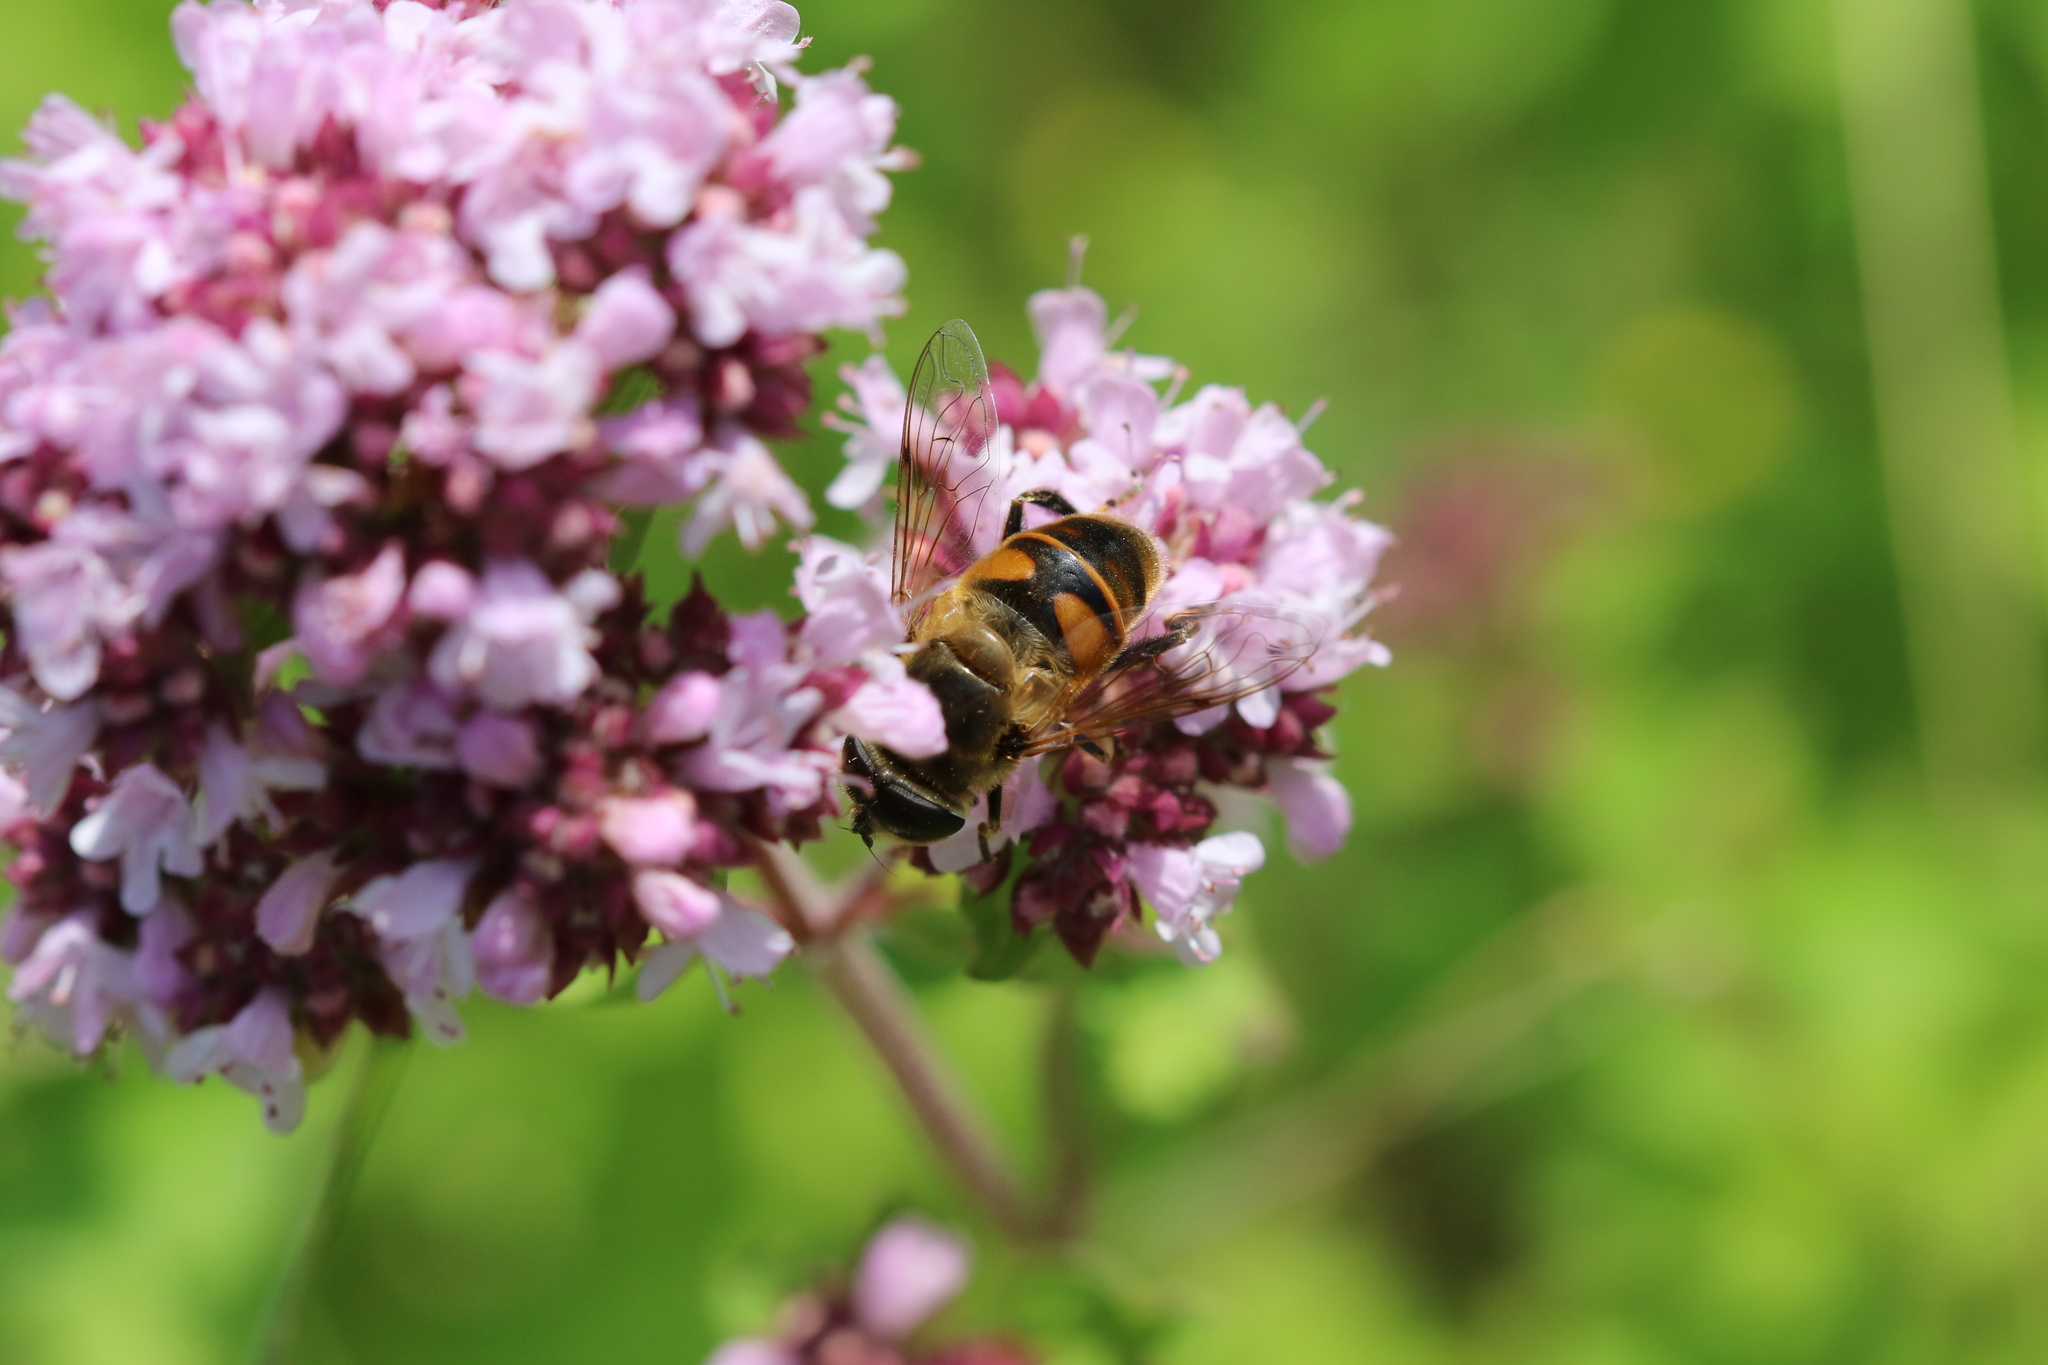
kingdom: Animalia
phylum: Arthropoda
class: Insecta
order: Diptera
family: Syrphidae
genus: Eristalis
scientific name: Eristalis tenax
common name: Drone fly
